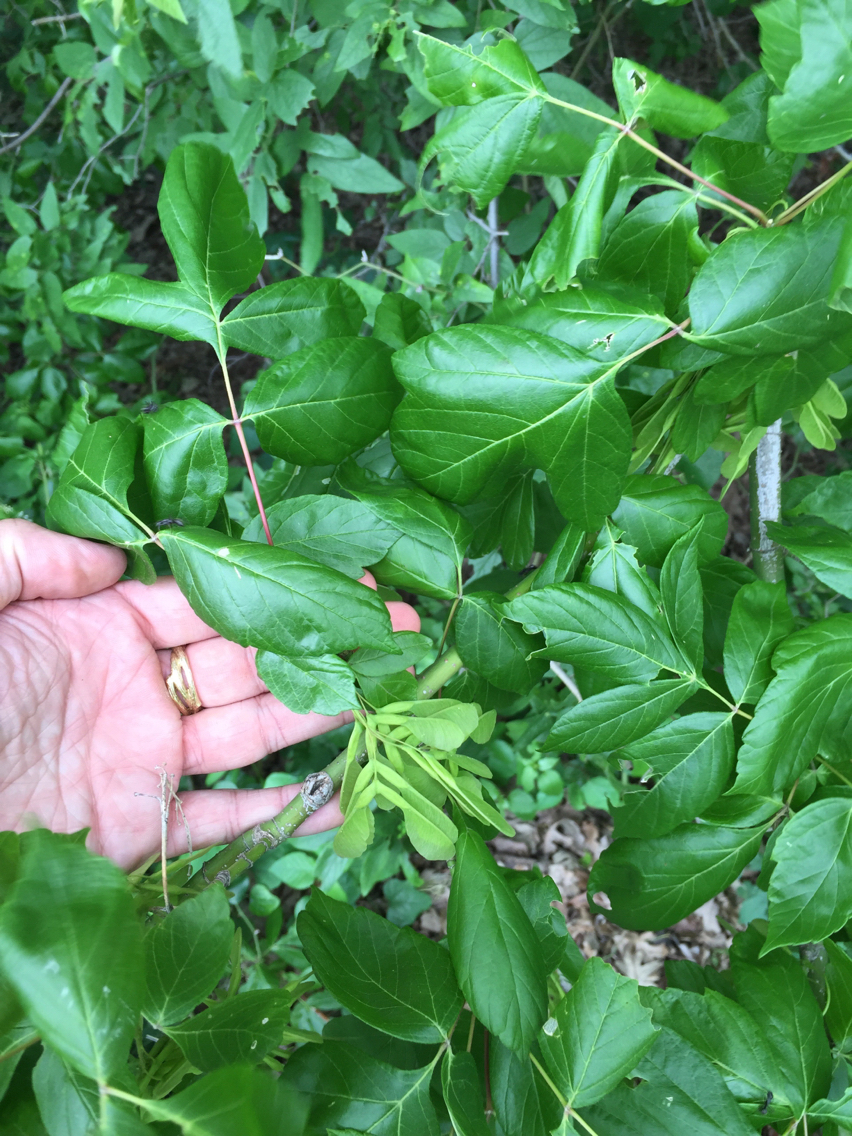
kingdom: Plantae
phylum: Tracheophyta
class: Magnoliopsida
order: Sapindales
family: Sapindaceae
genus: Acer
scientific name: Acer negundo
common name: Ashleaf maple
